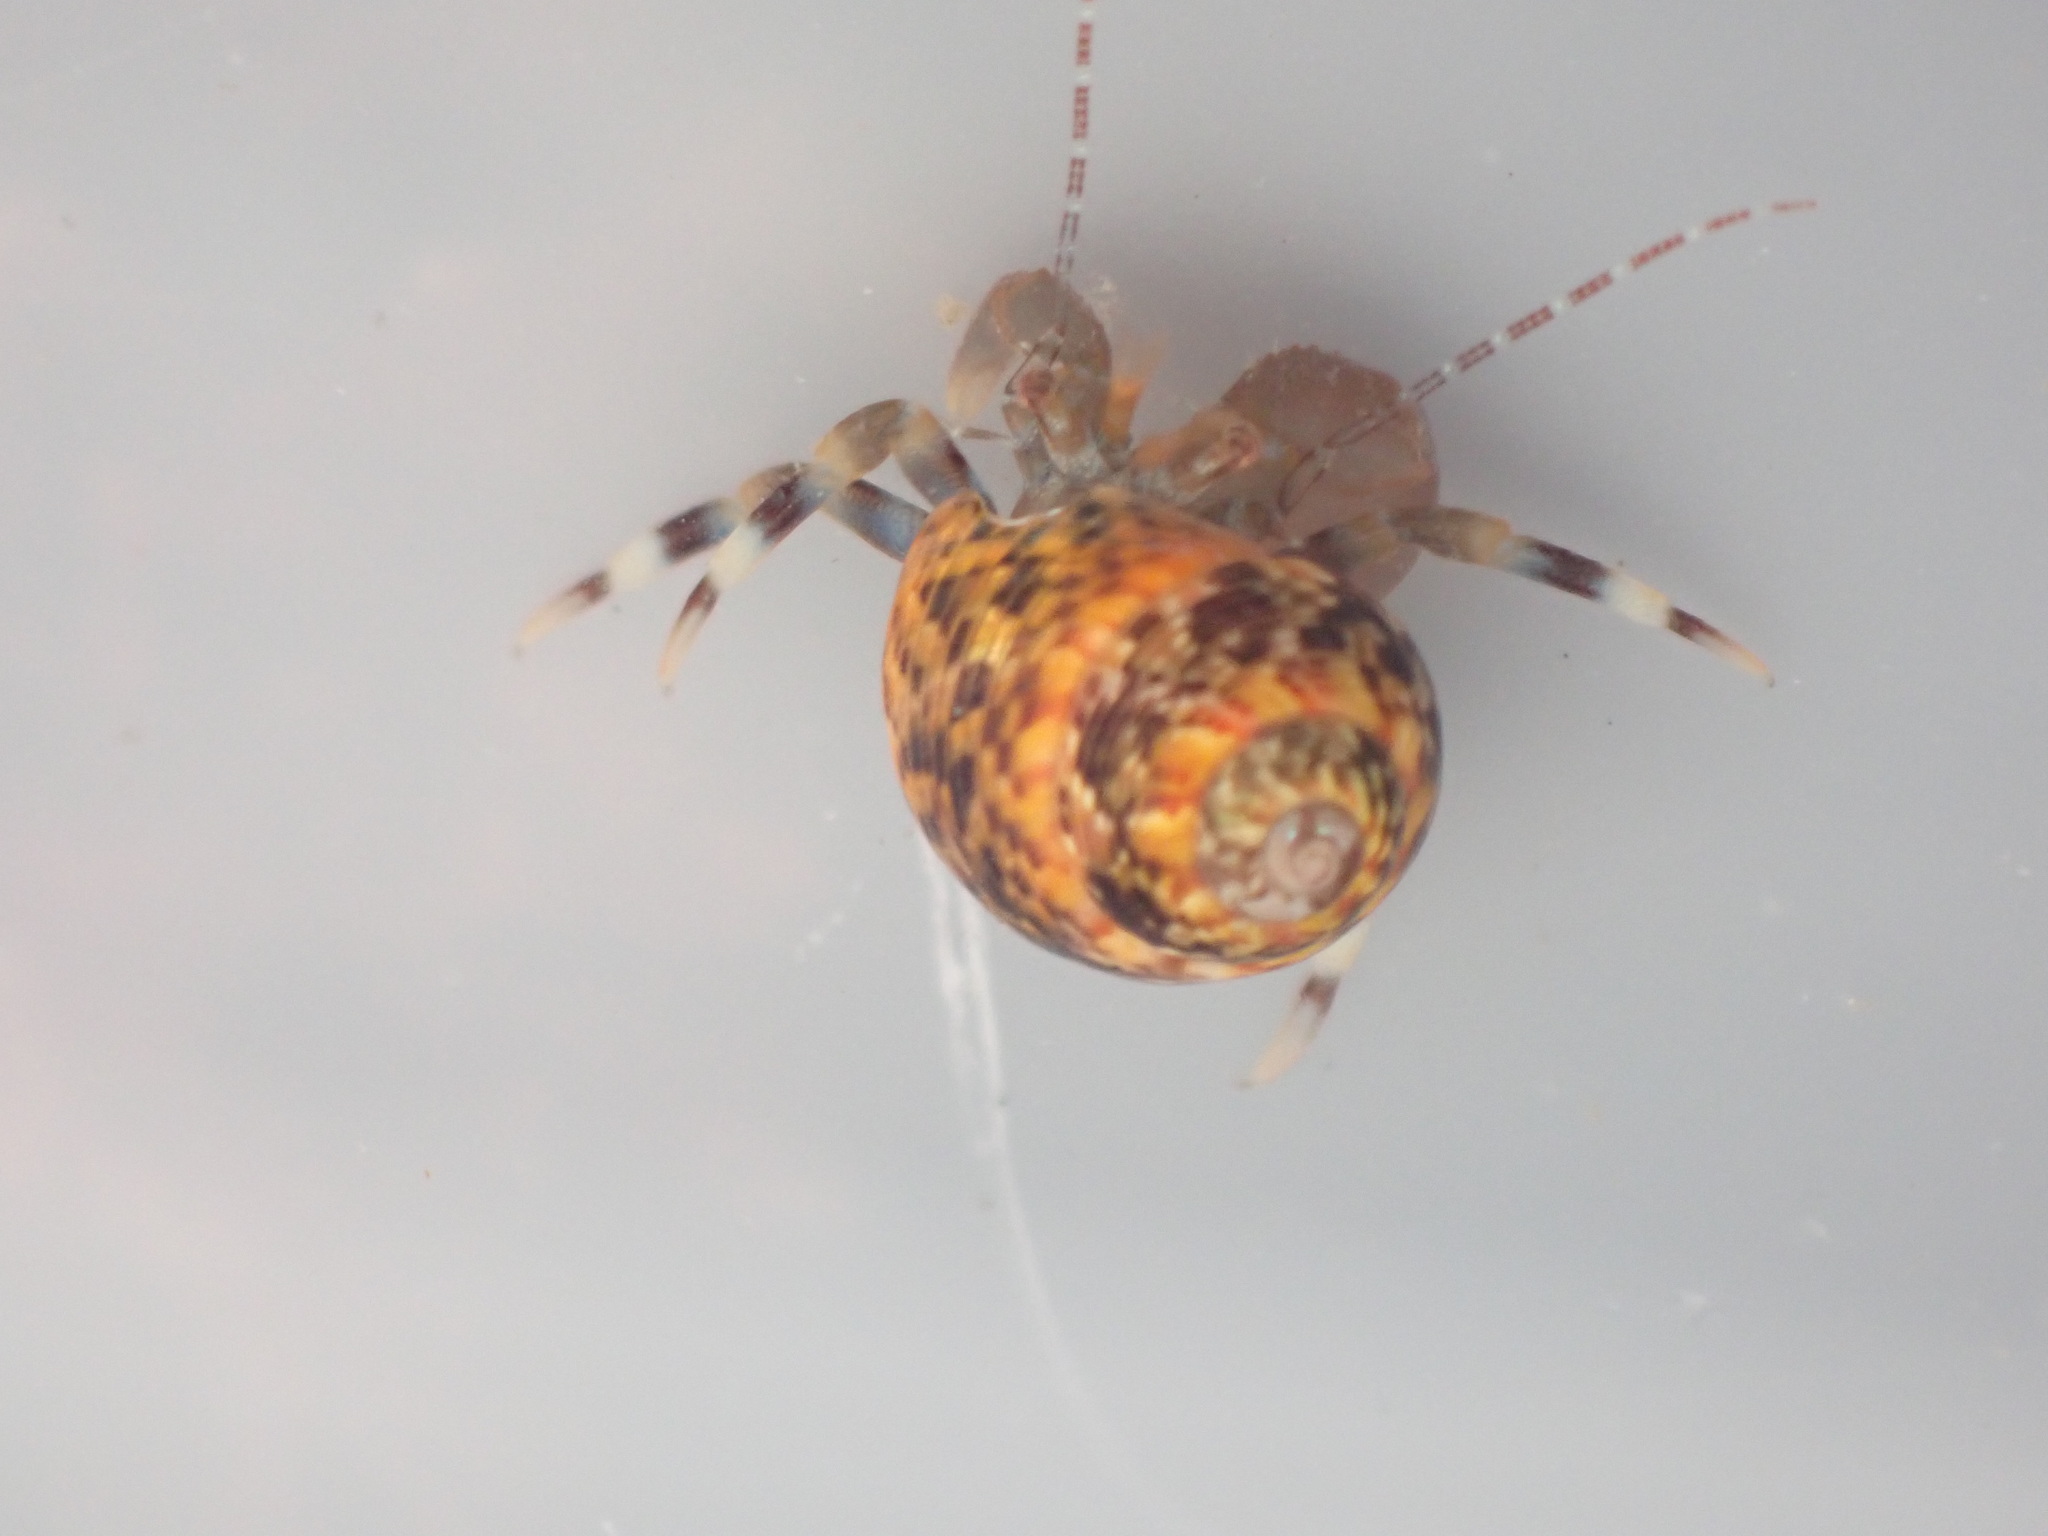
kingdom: Animalia
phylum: Arthropoda
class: Malacostraca
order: Decapoda
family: Paguridae
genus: Pagurixus
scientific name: Pagurixus hectori
